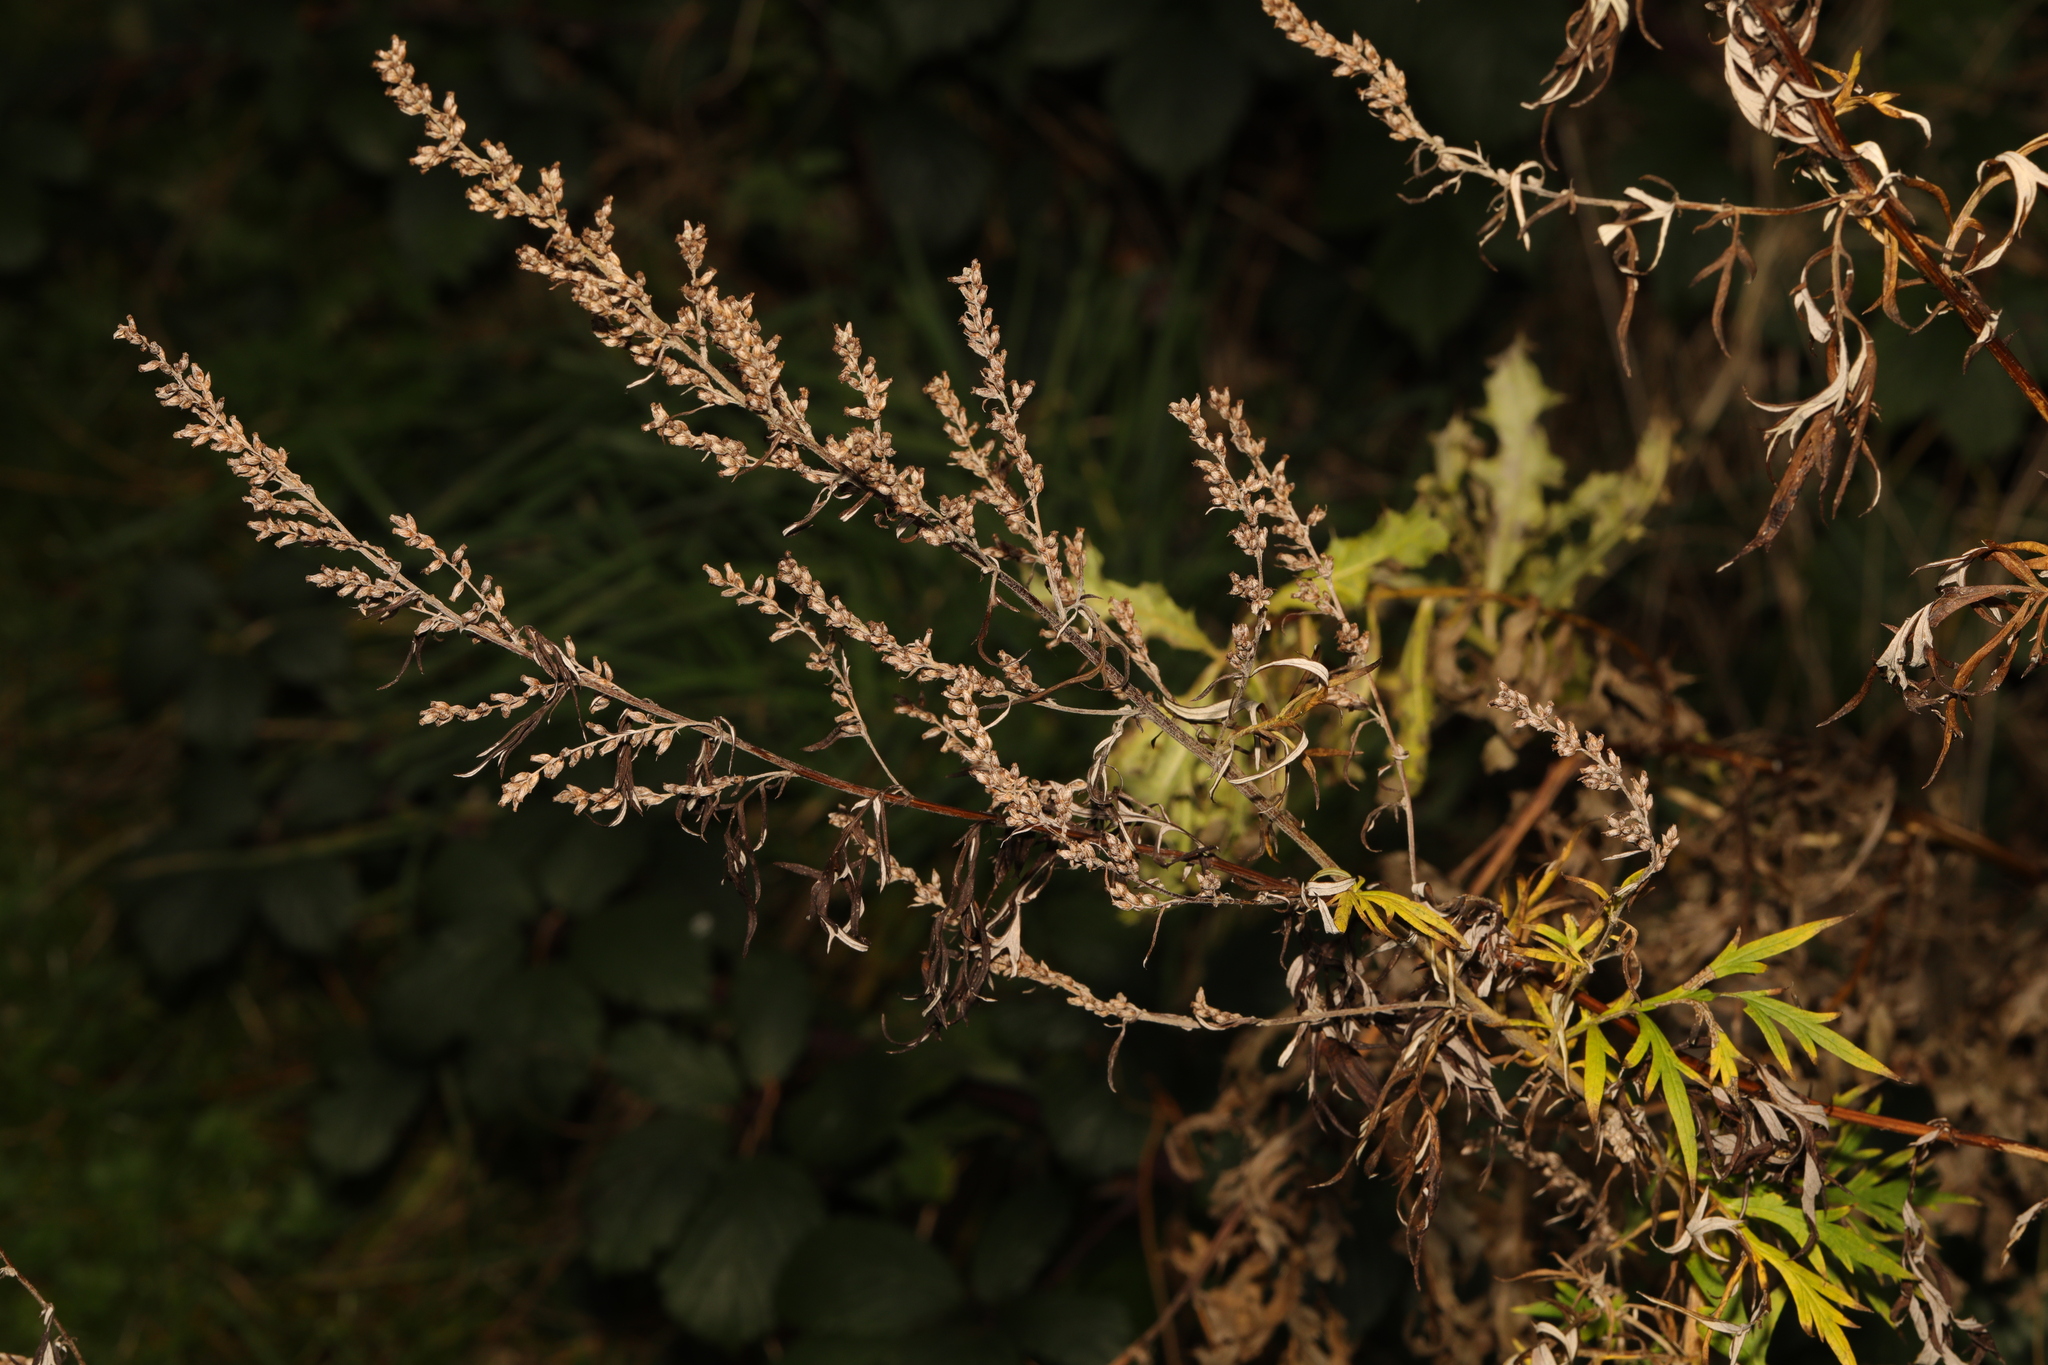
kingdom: Plantae
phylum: Tracheophyta
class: Magnoliopsida
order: Asterales
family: Asteraceae
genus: Artemisia
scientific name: Artemisia vulgaris
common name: Mugwort
